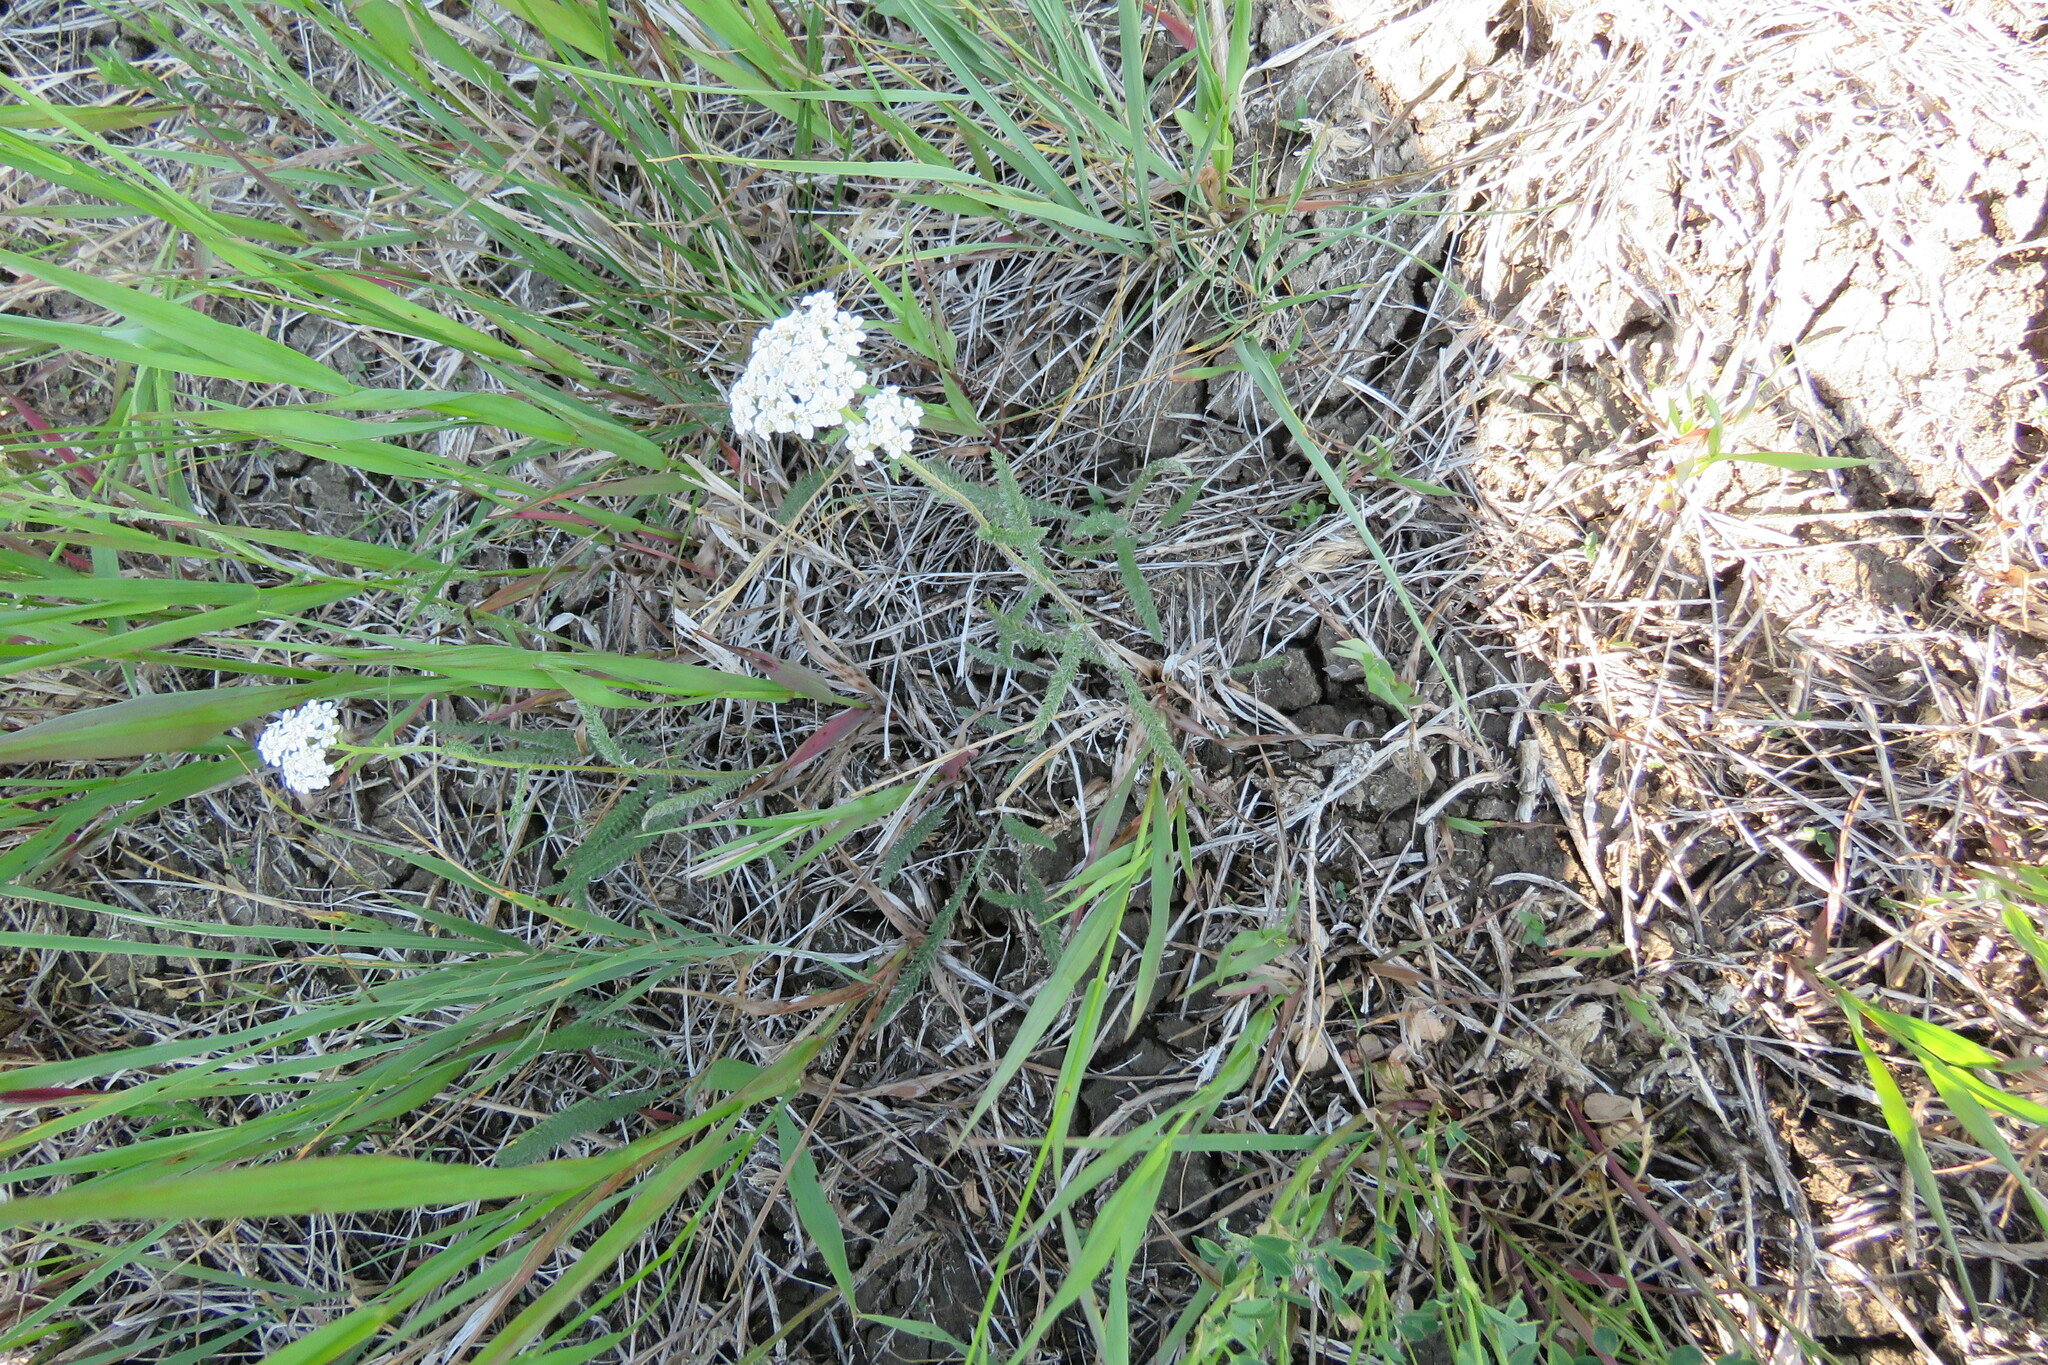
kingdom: Plantae
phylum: Tracheophyta
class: Magnoliopsida
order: Asterales
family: Asteraceae
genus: Achillea
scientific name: Achillea millefolium
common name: Yarrow
